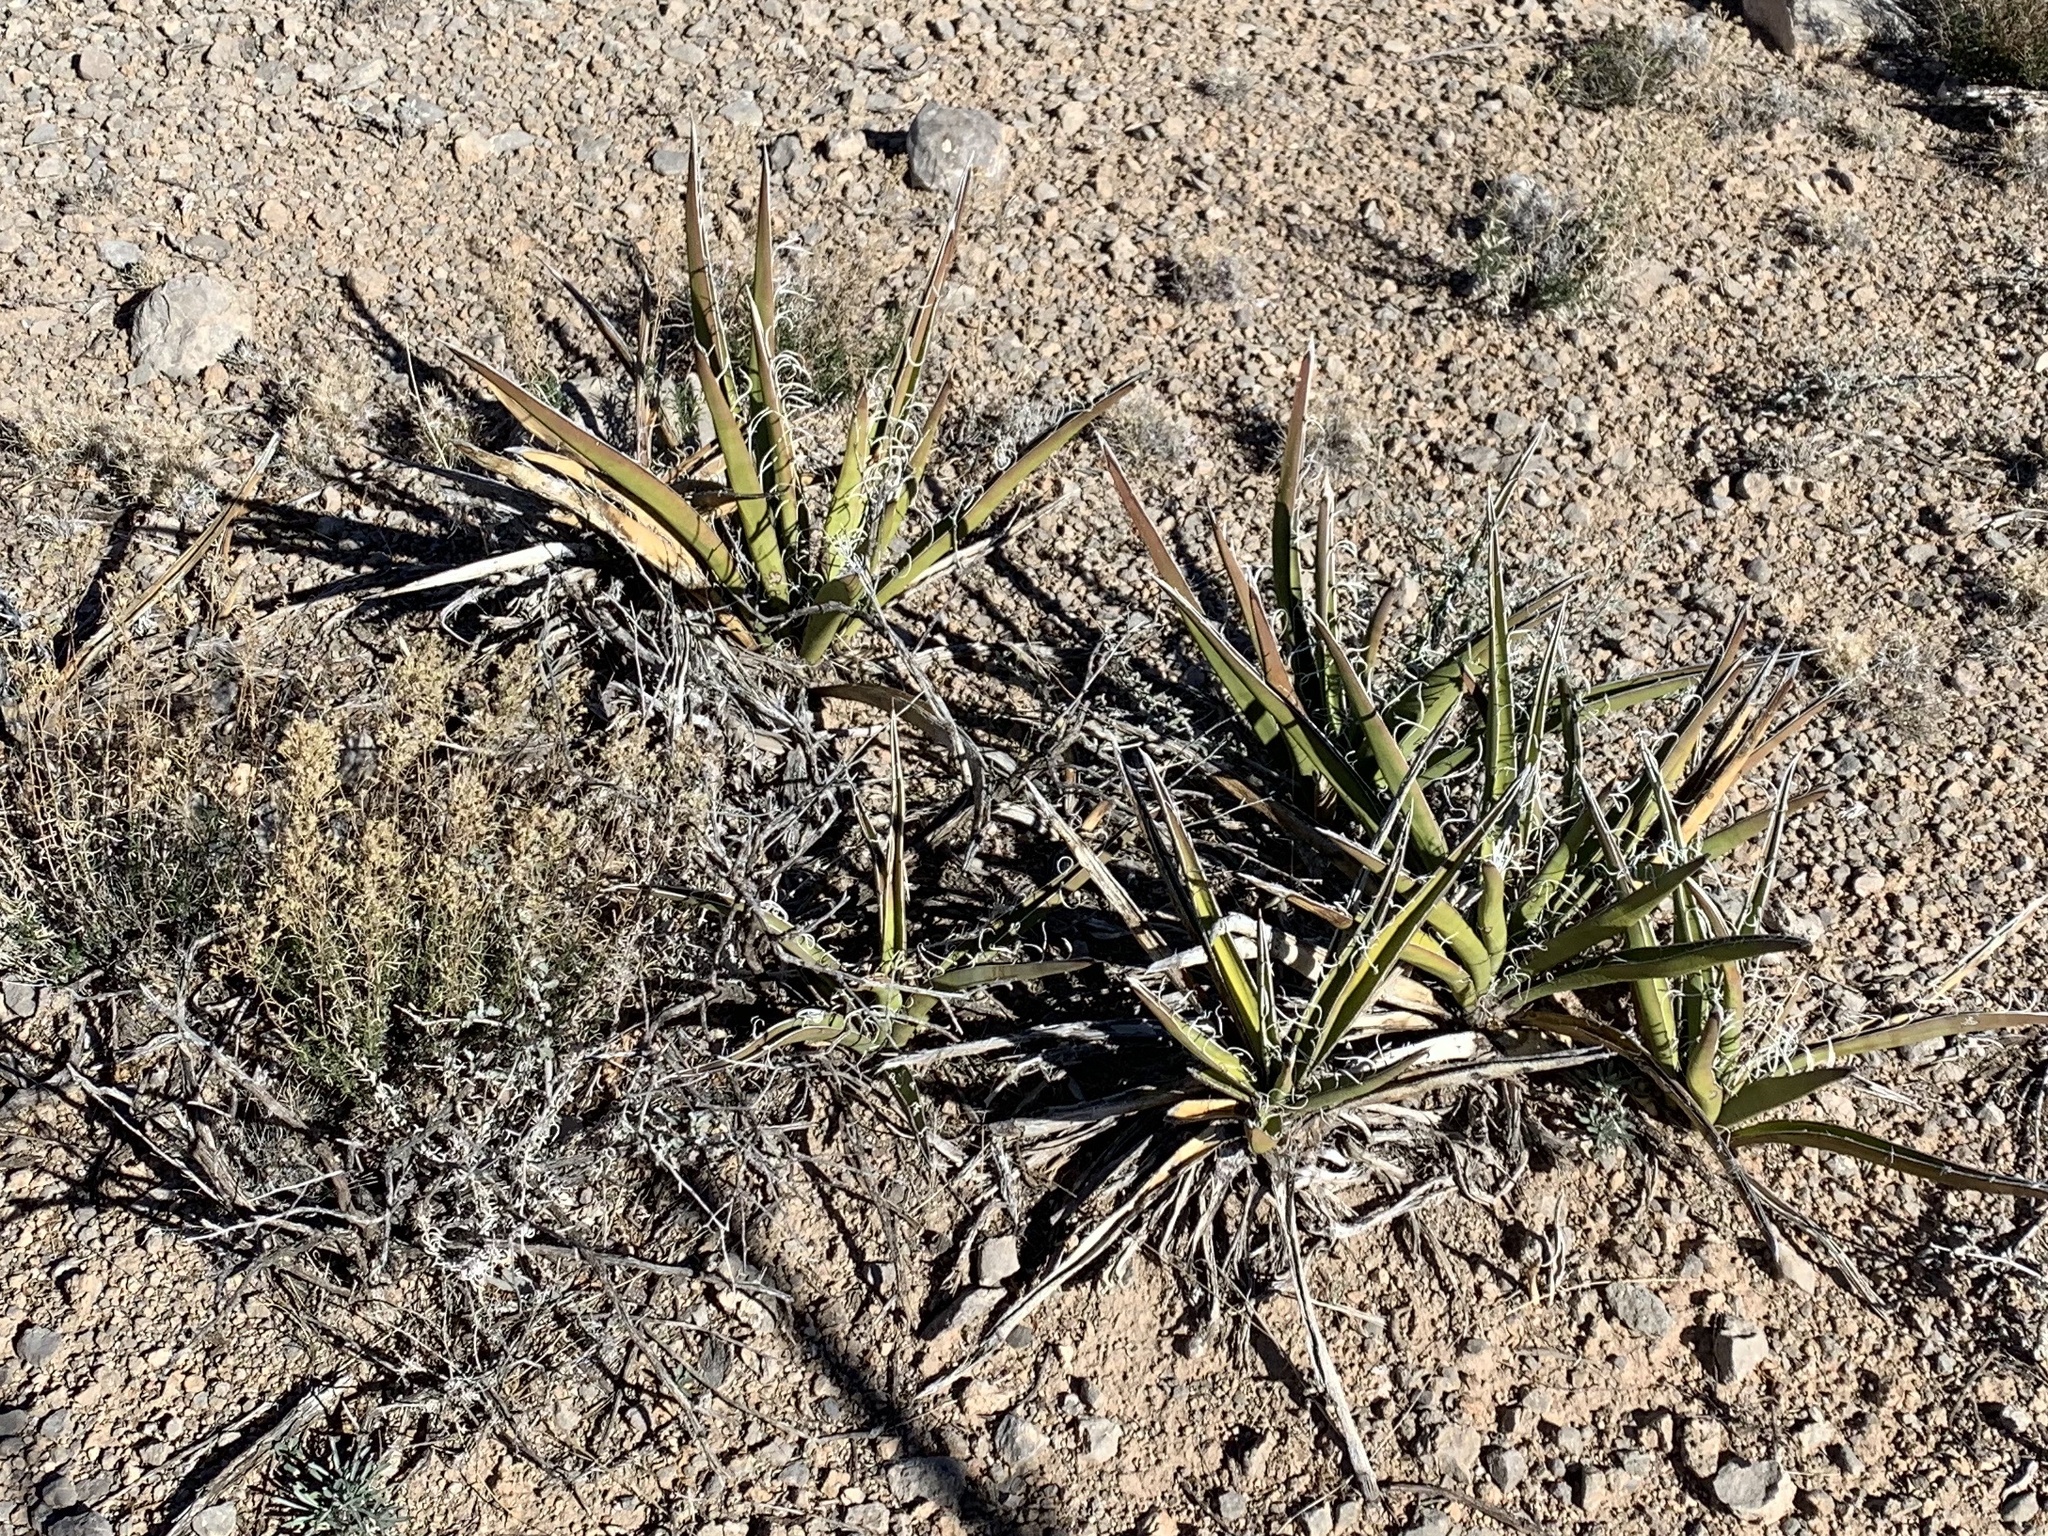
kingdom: Plantae
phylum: Tracheophyta
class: Liliopsida
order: Asparagales
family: Asparagaceae
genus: Yucca
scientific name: Yucca baccata
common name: Banana yucca
